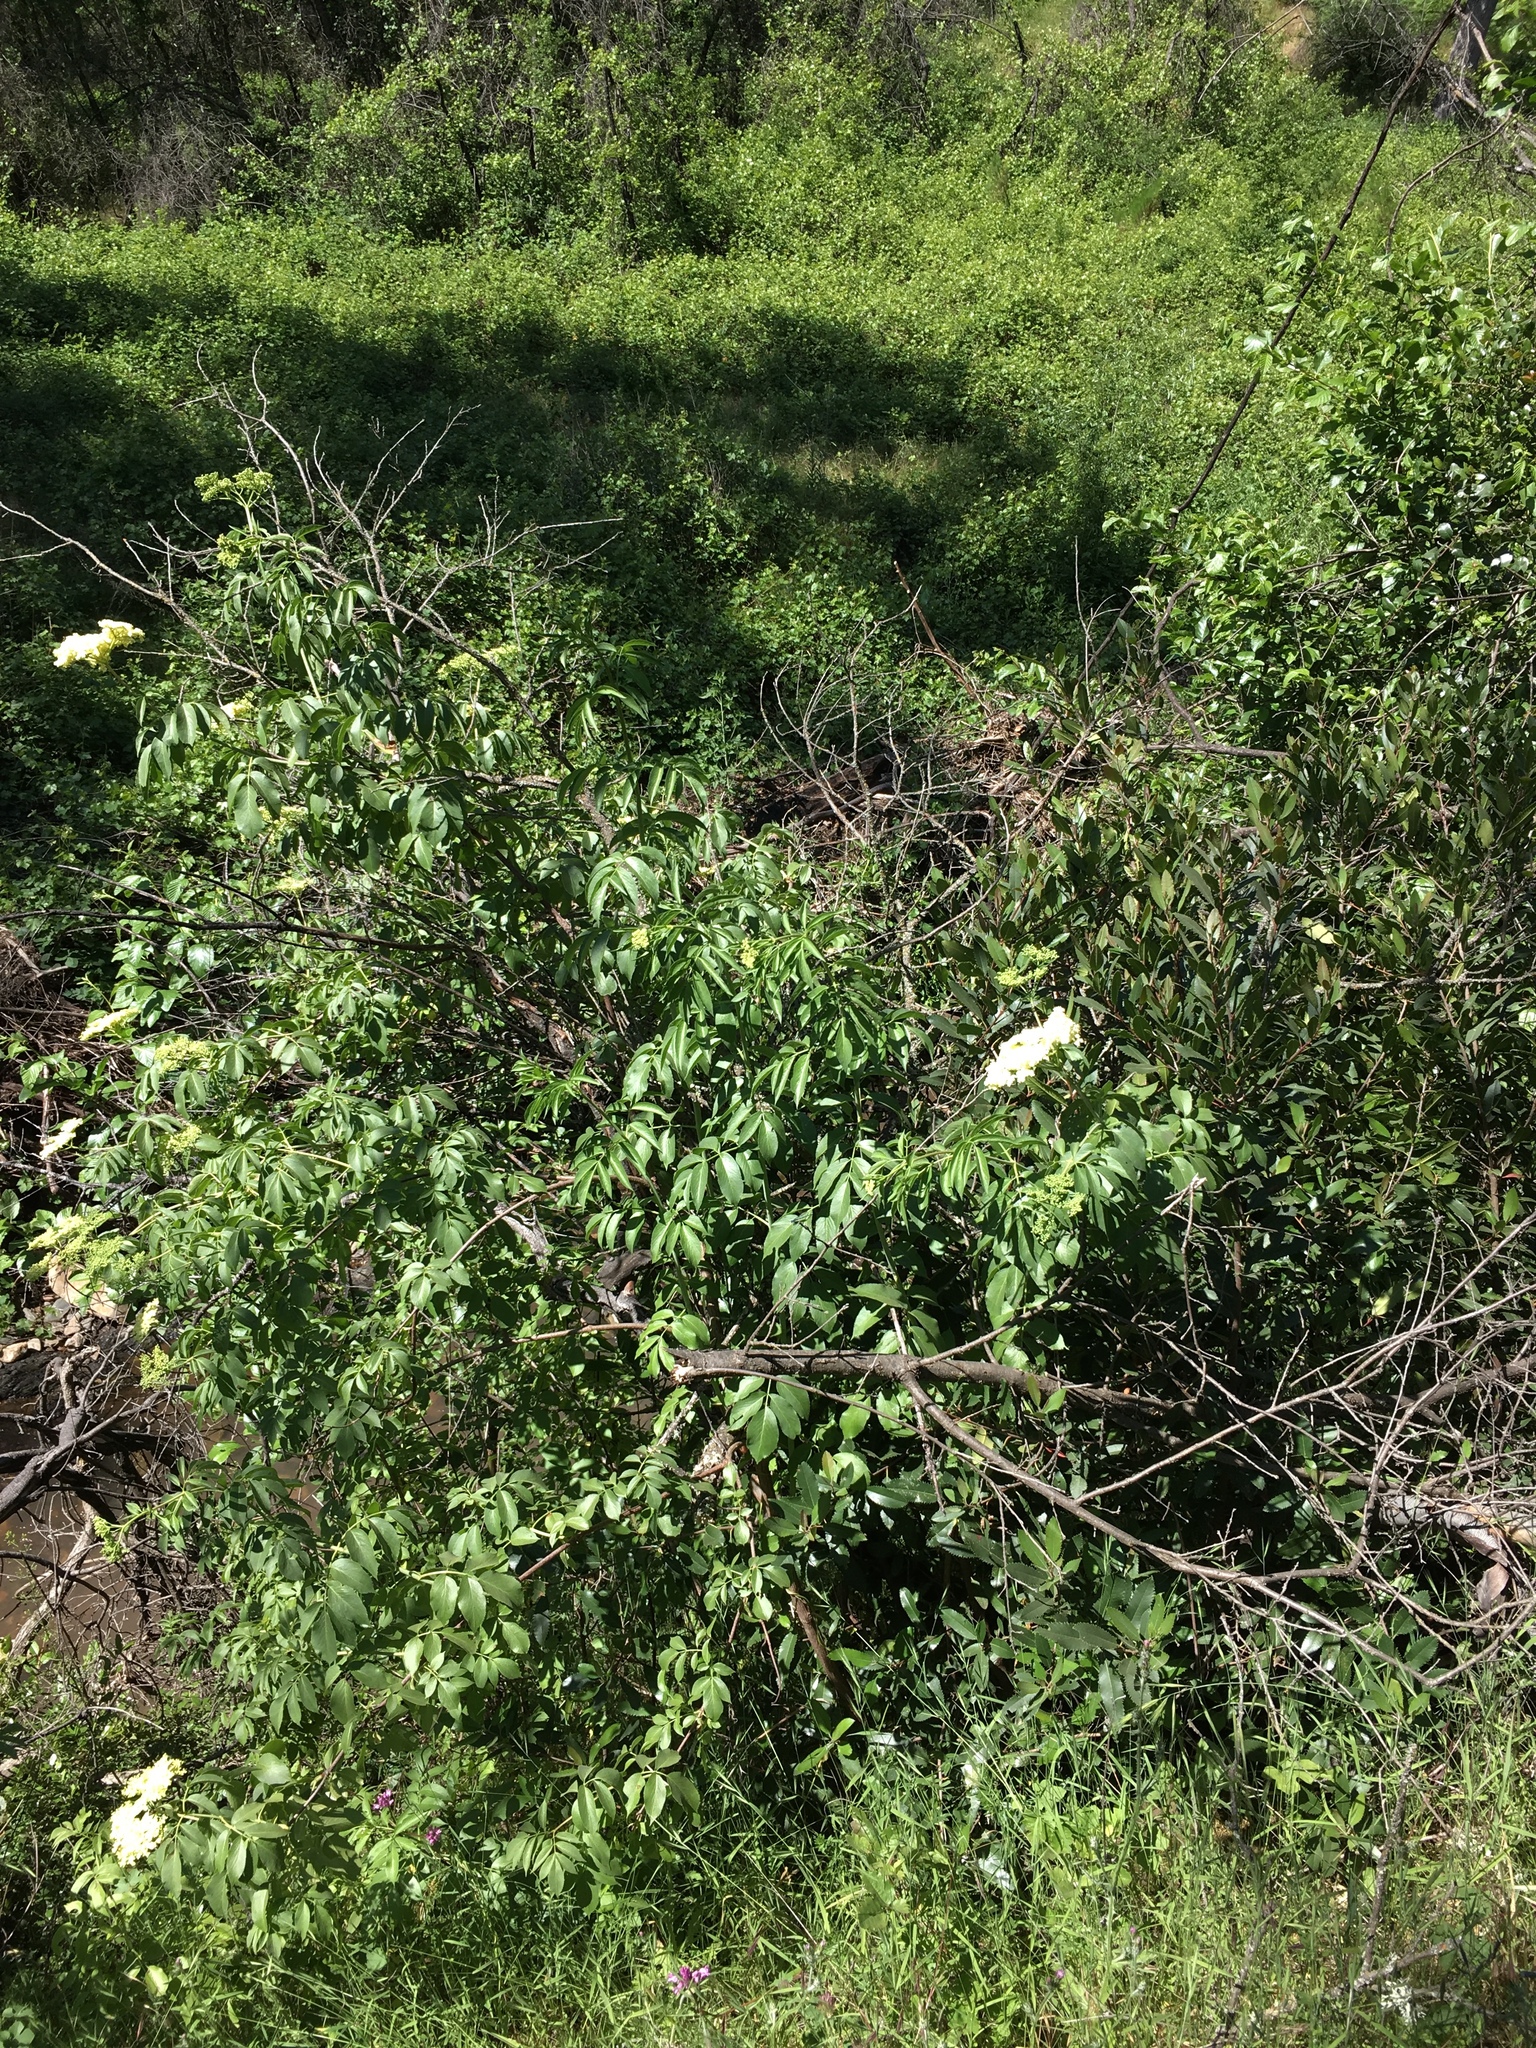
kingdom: Plantae
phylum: Tracheophyta
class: Magnoliopsida
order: Dipsacales
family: Viburnaceae
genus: Sambucus
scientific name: Sambucus cerulea
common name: Blue elder
